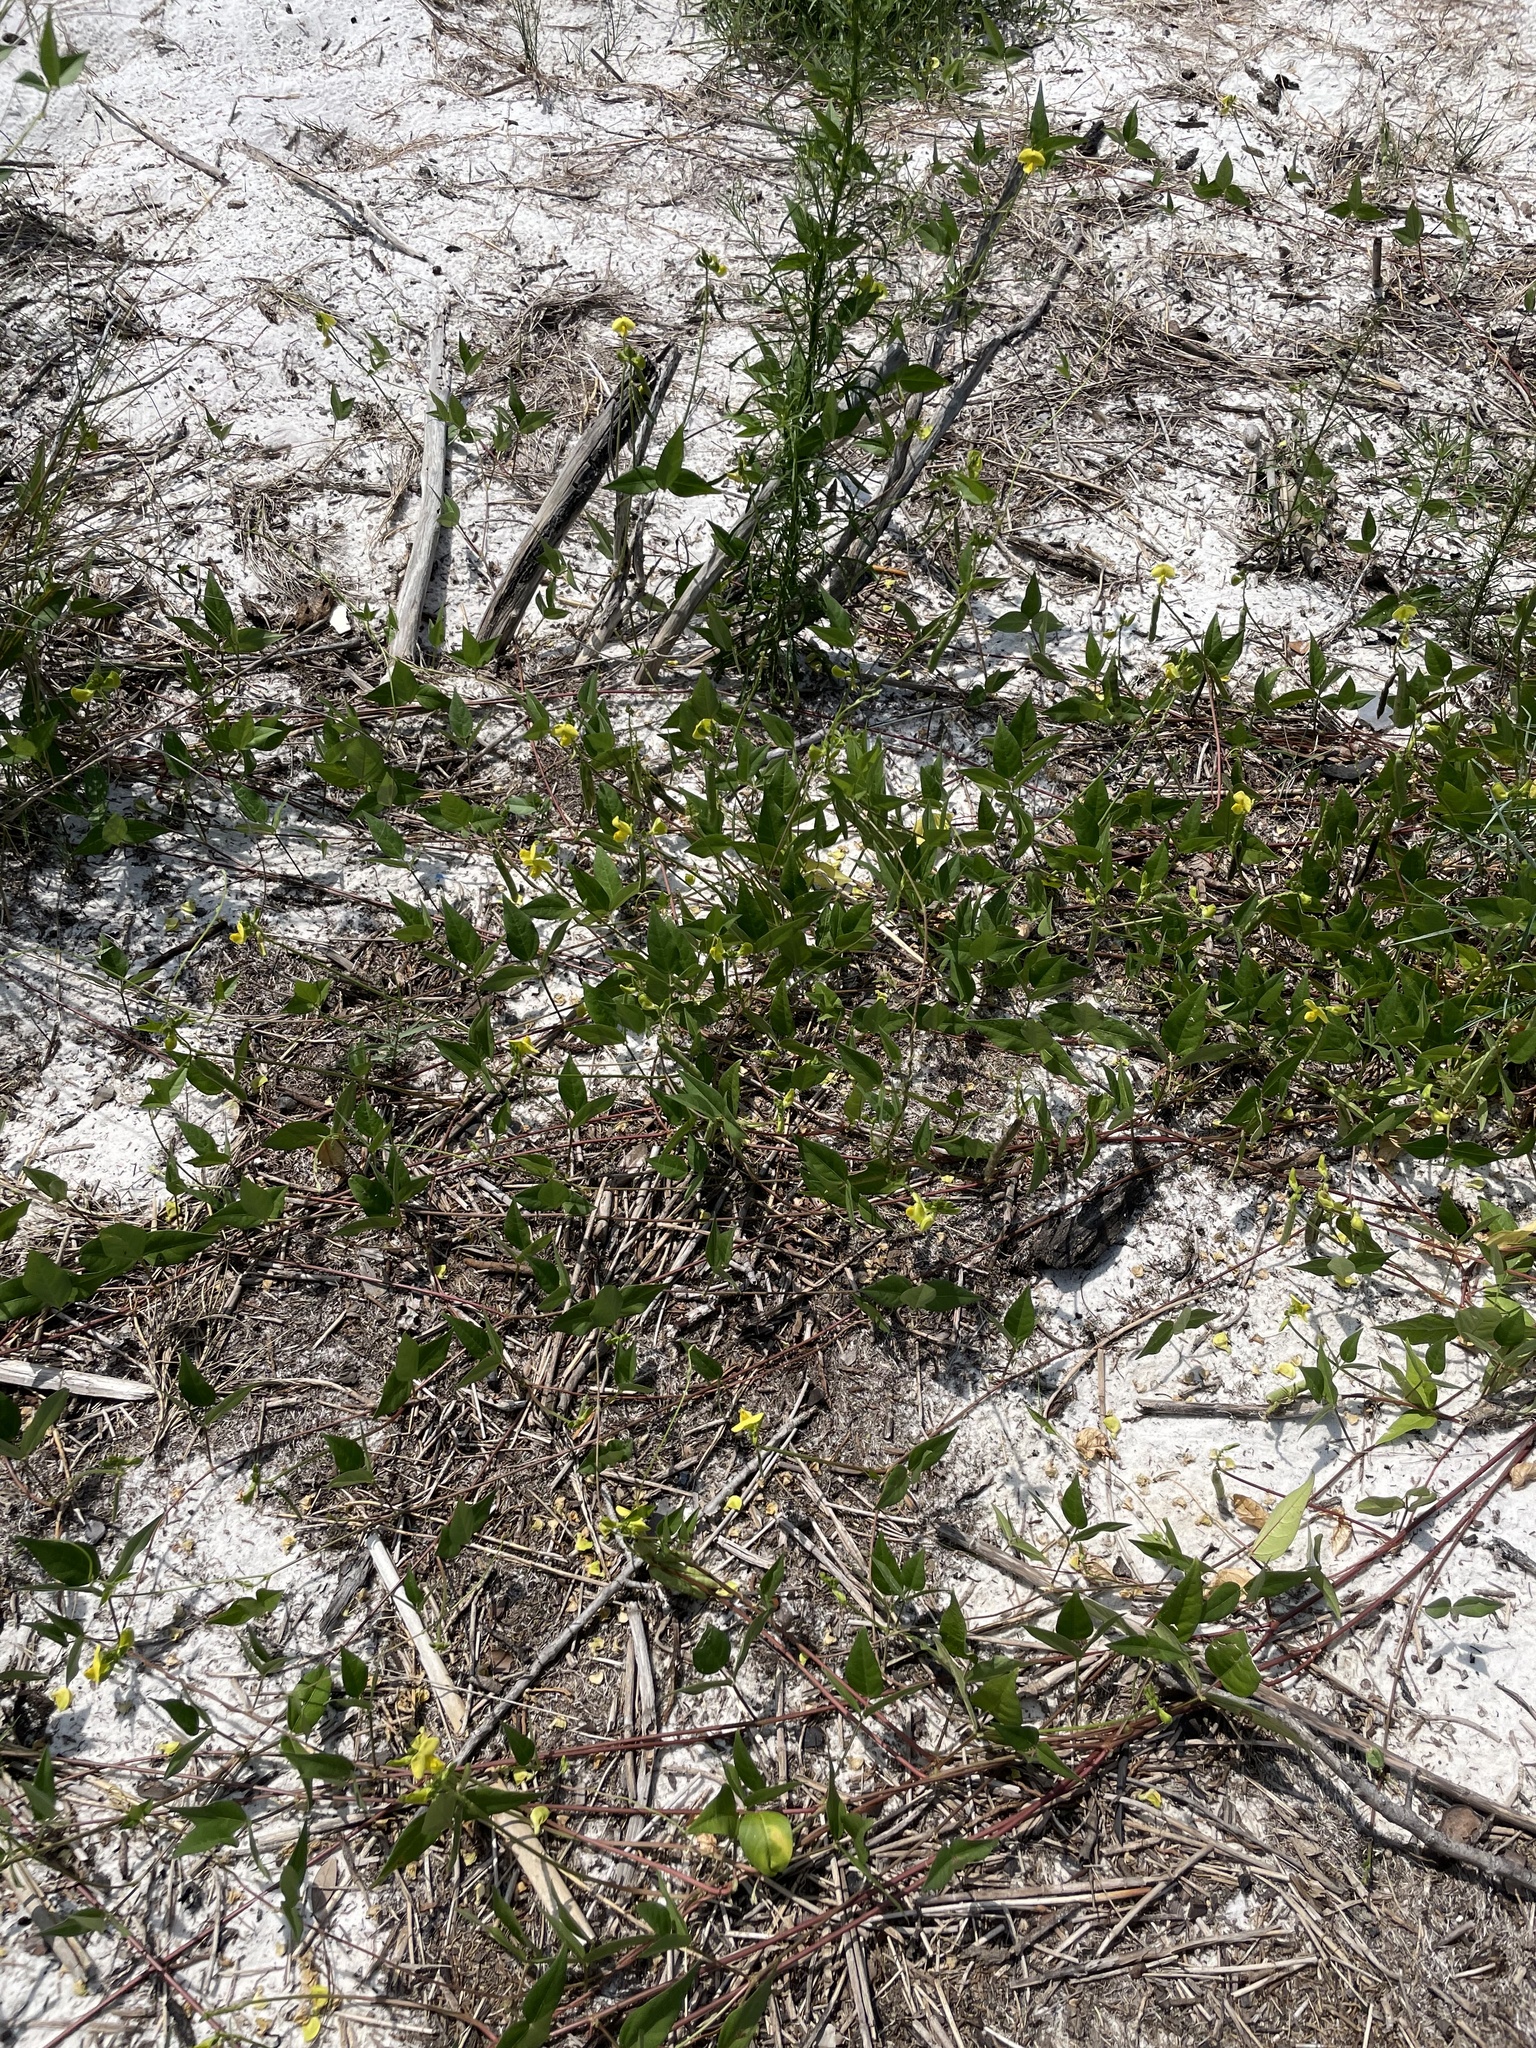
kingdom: Plantae
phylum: Tracheophyta
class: Magnoliopsida
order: Fabales
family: Fabaceae
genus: Vigna
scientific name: Vigna luteola
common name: Hairypod cowpea
